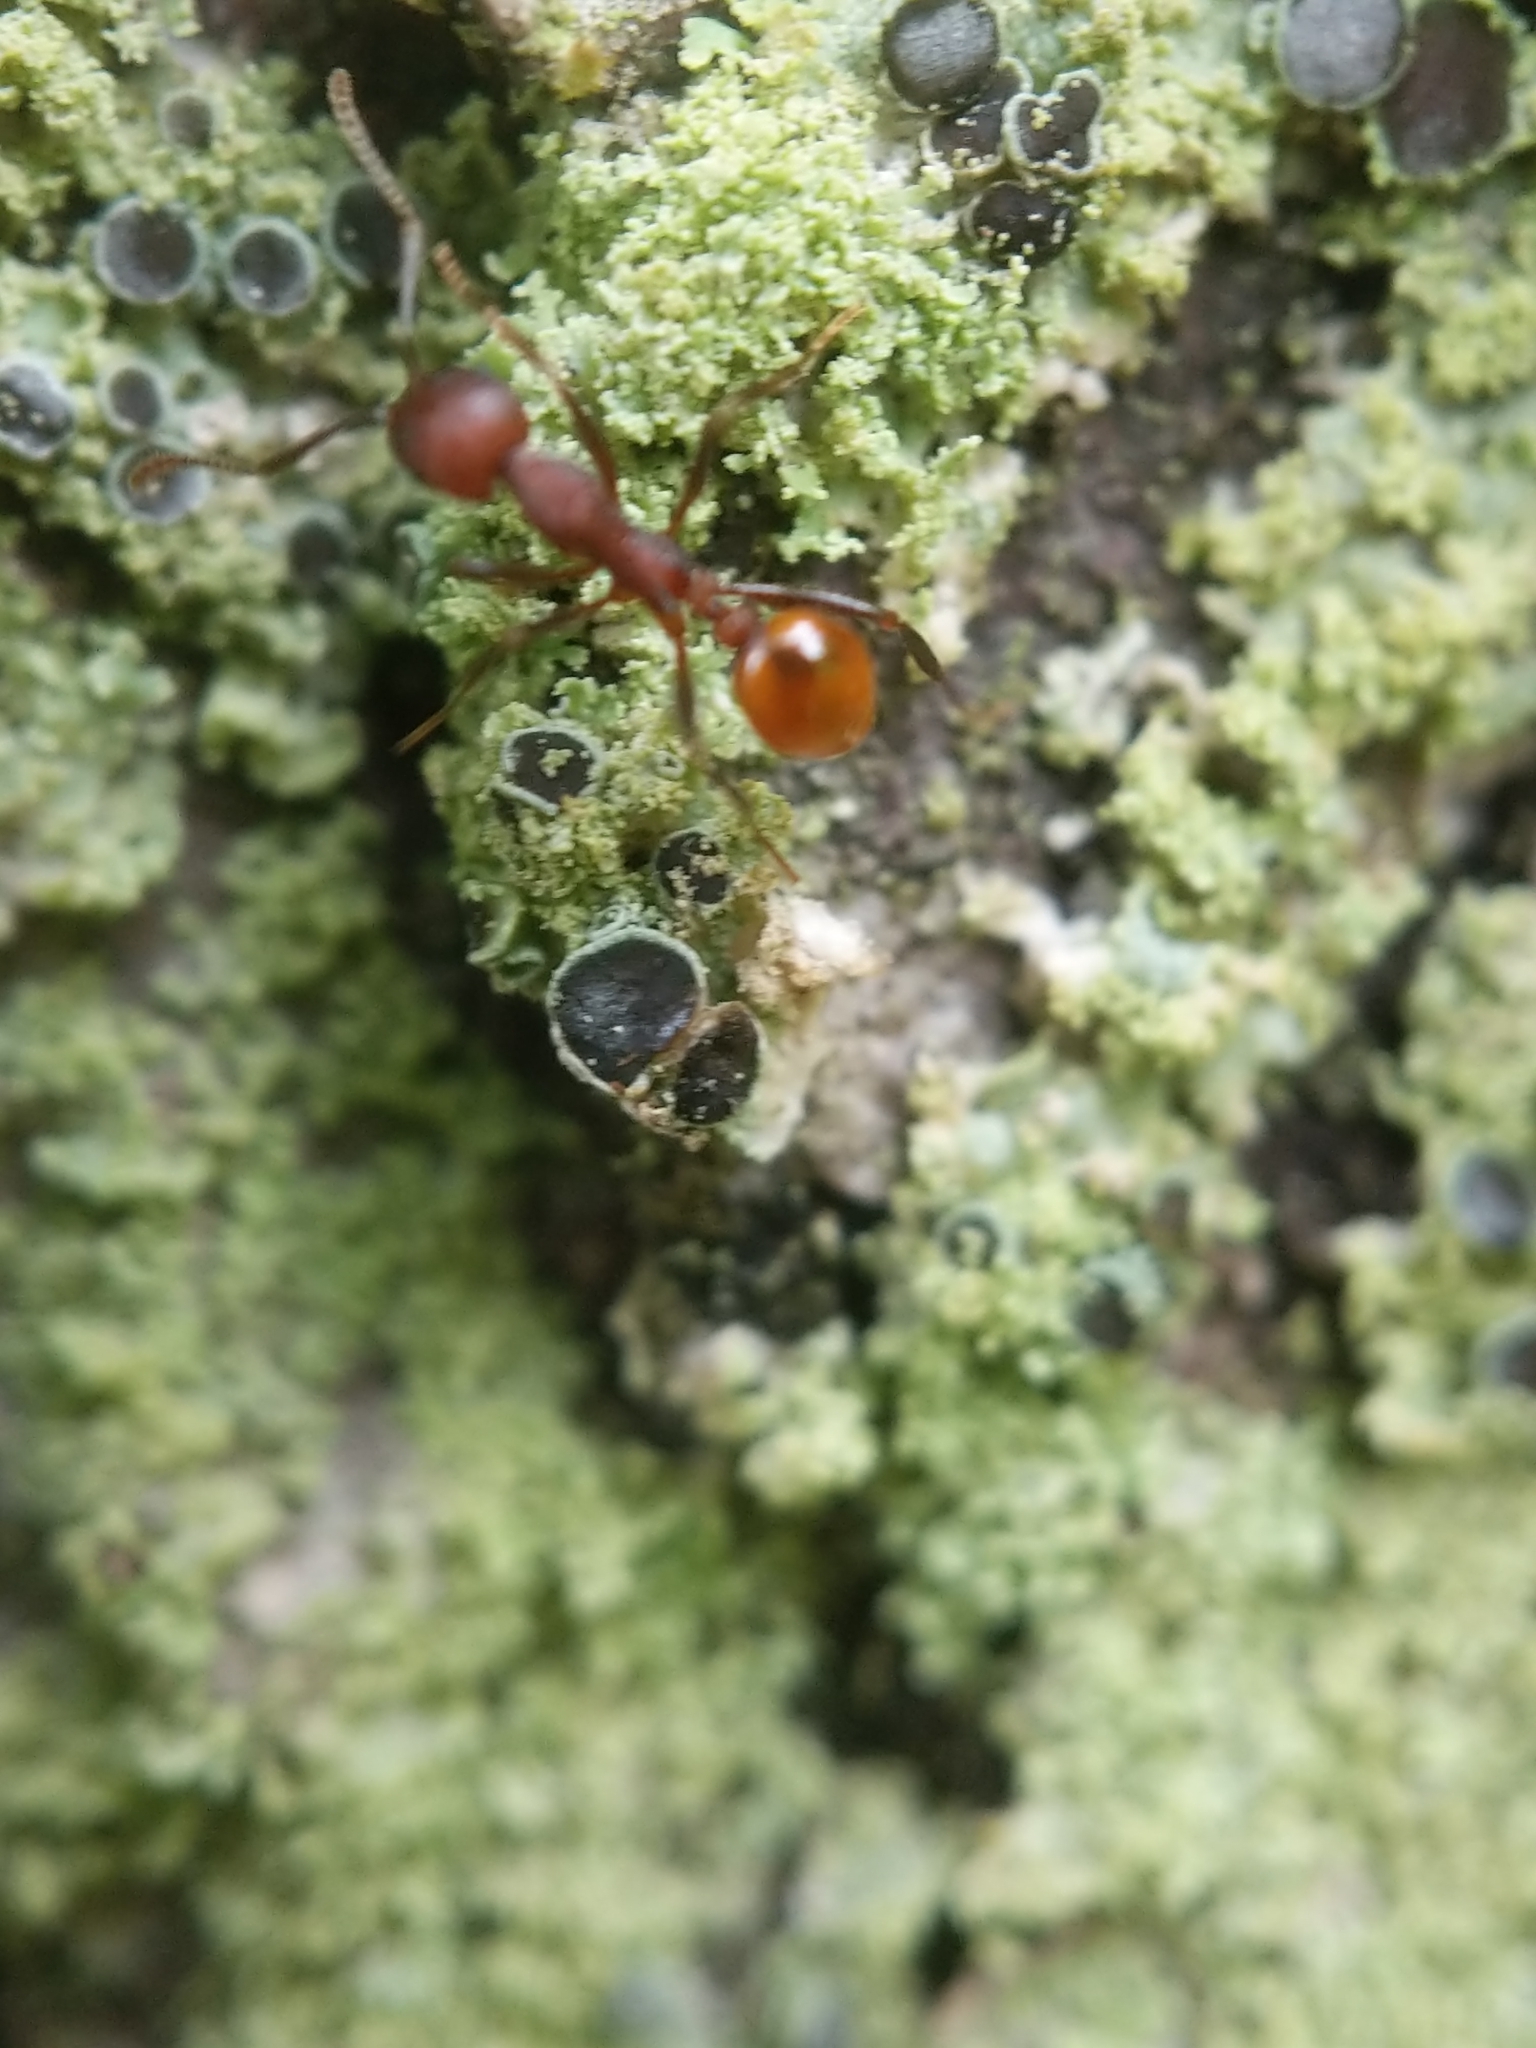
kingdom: Animalia
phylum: Arthropoda
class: Insecta
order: Hymenoptera
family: Formicidae
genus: Aphaenogaster
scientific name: Aphaenogaster tennesseensis
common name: Tennessee thread-waisted ant
